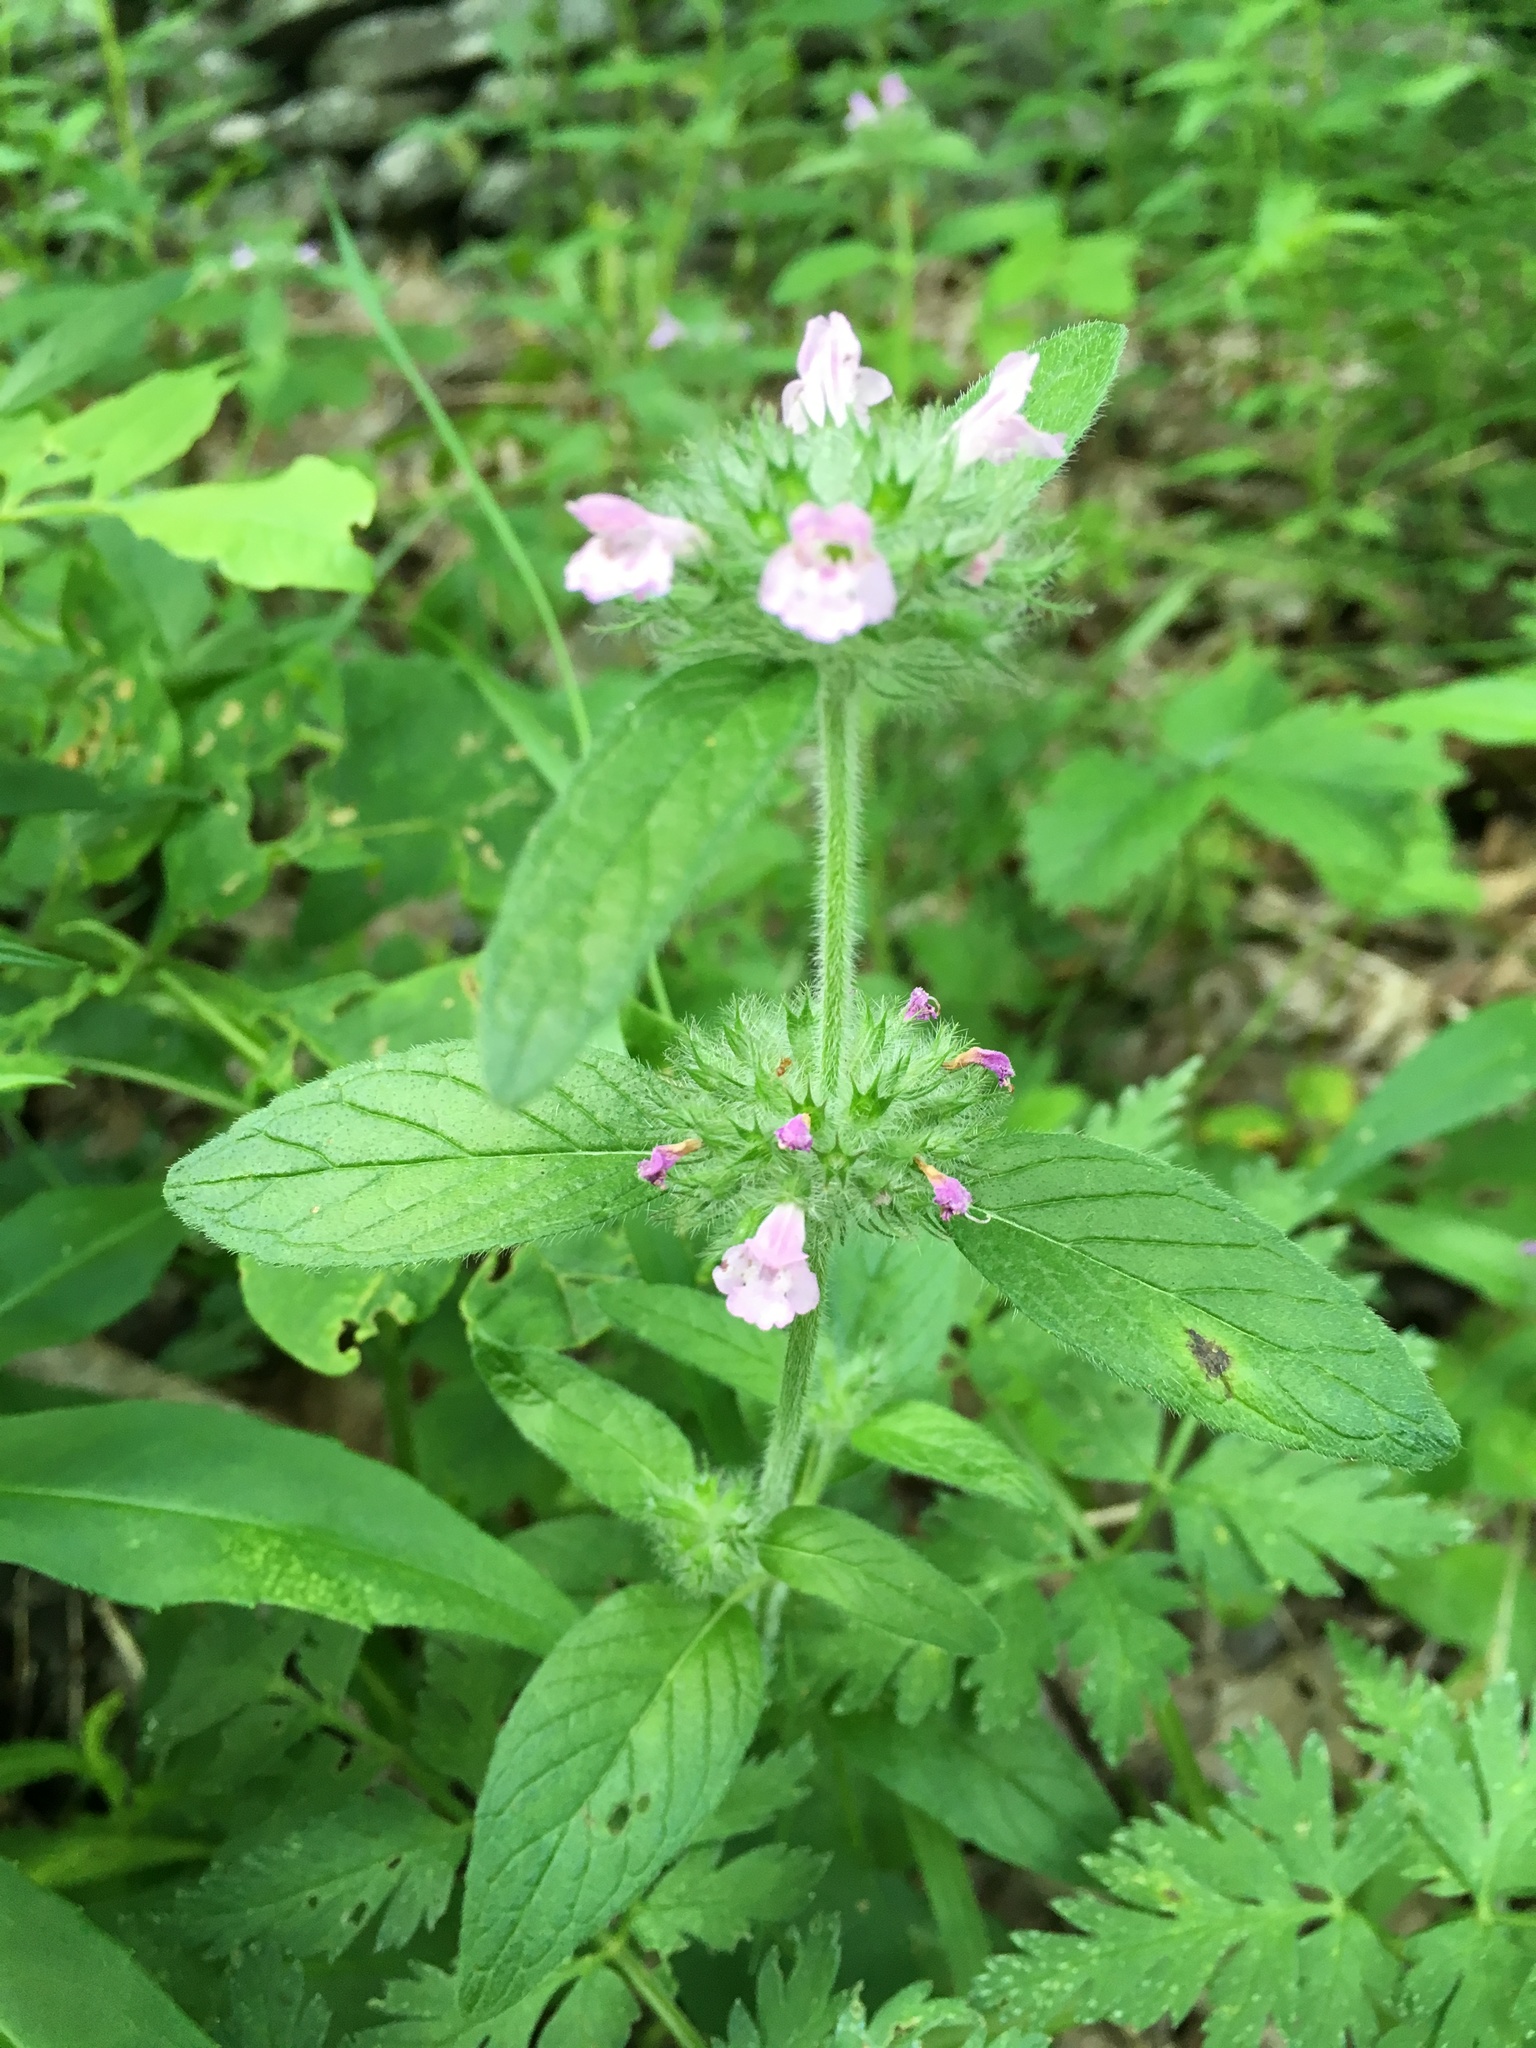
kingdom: Plantae
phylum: Tracheophyta
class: Magnoliopsida
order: Lamiales
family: Lamiaceae
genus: Clinopodium
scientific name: Clinopodium vulgare
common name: Wild basil
